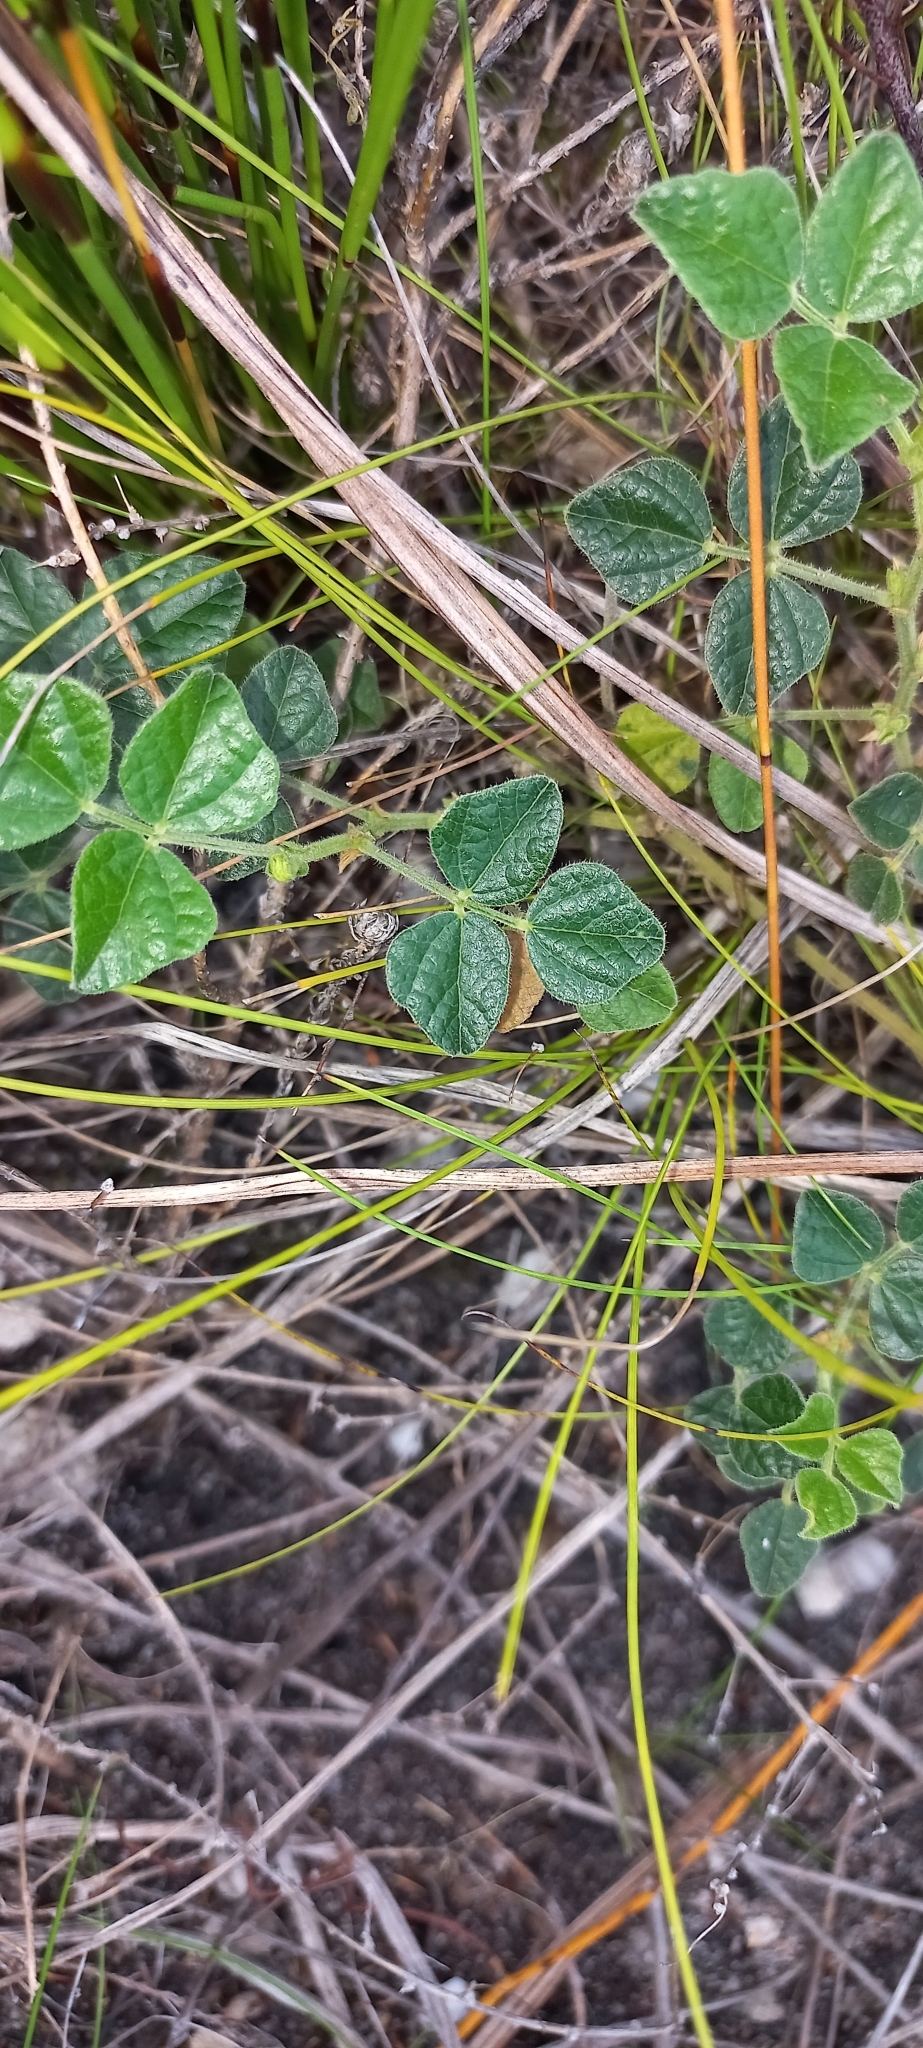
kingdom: Plantae
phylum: Tracheophyta
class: Magnoliopsida
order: Fabales
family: Fabaceae
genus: Bolusafra
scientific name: Bolusafra bituminosa
